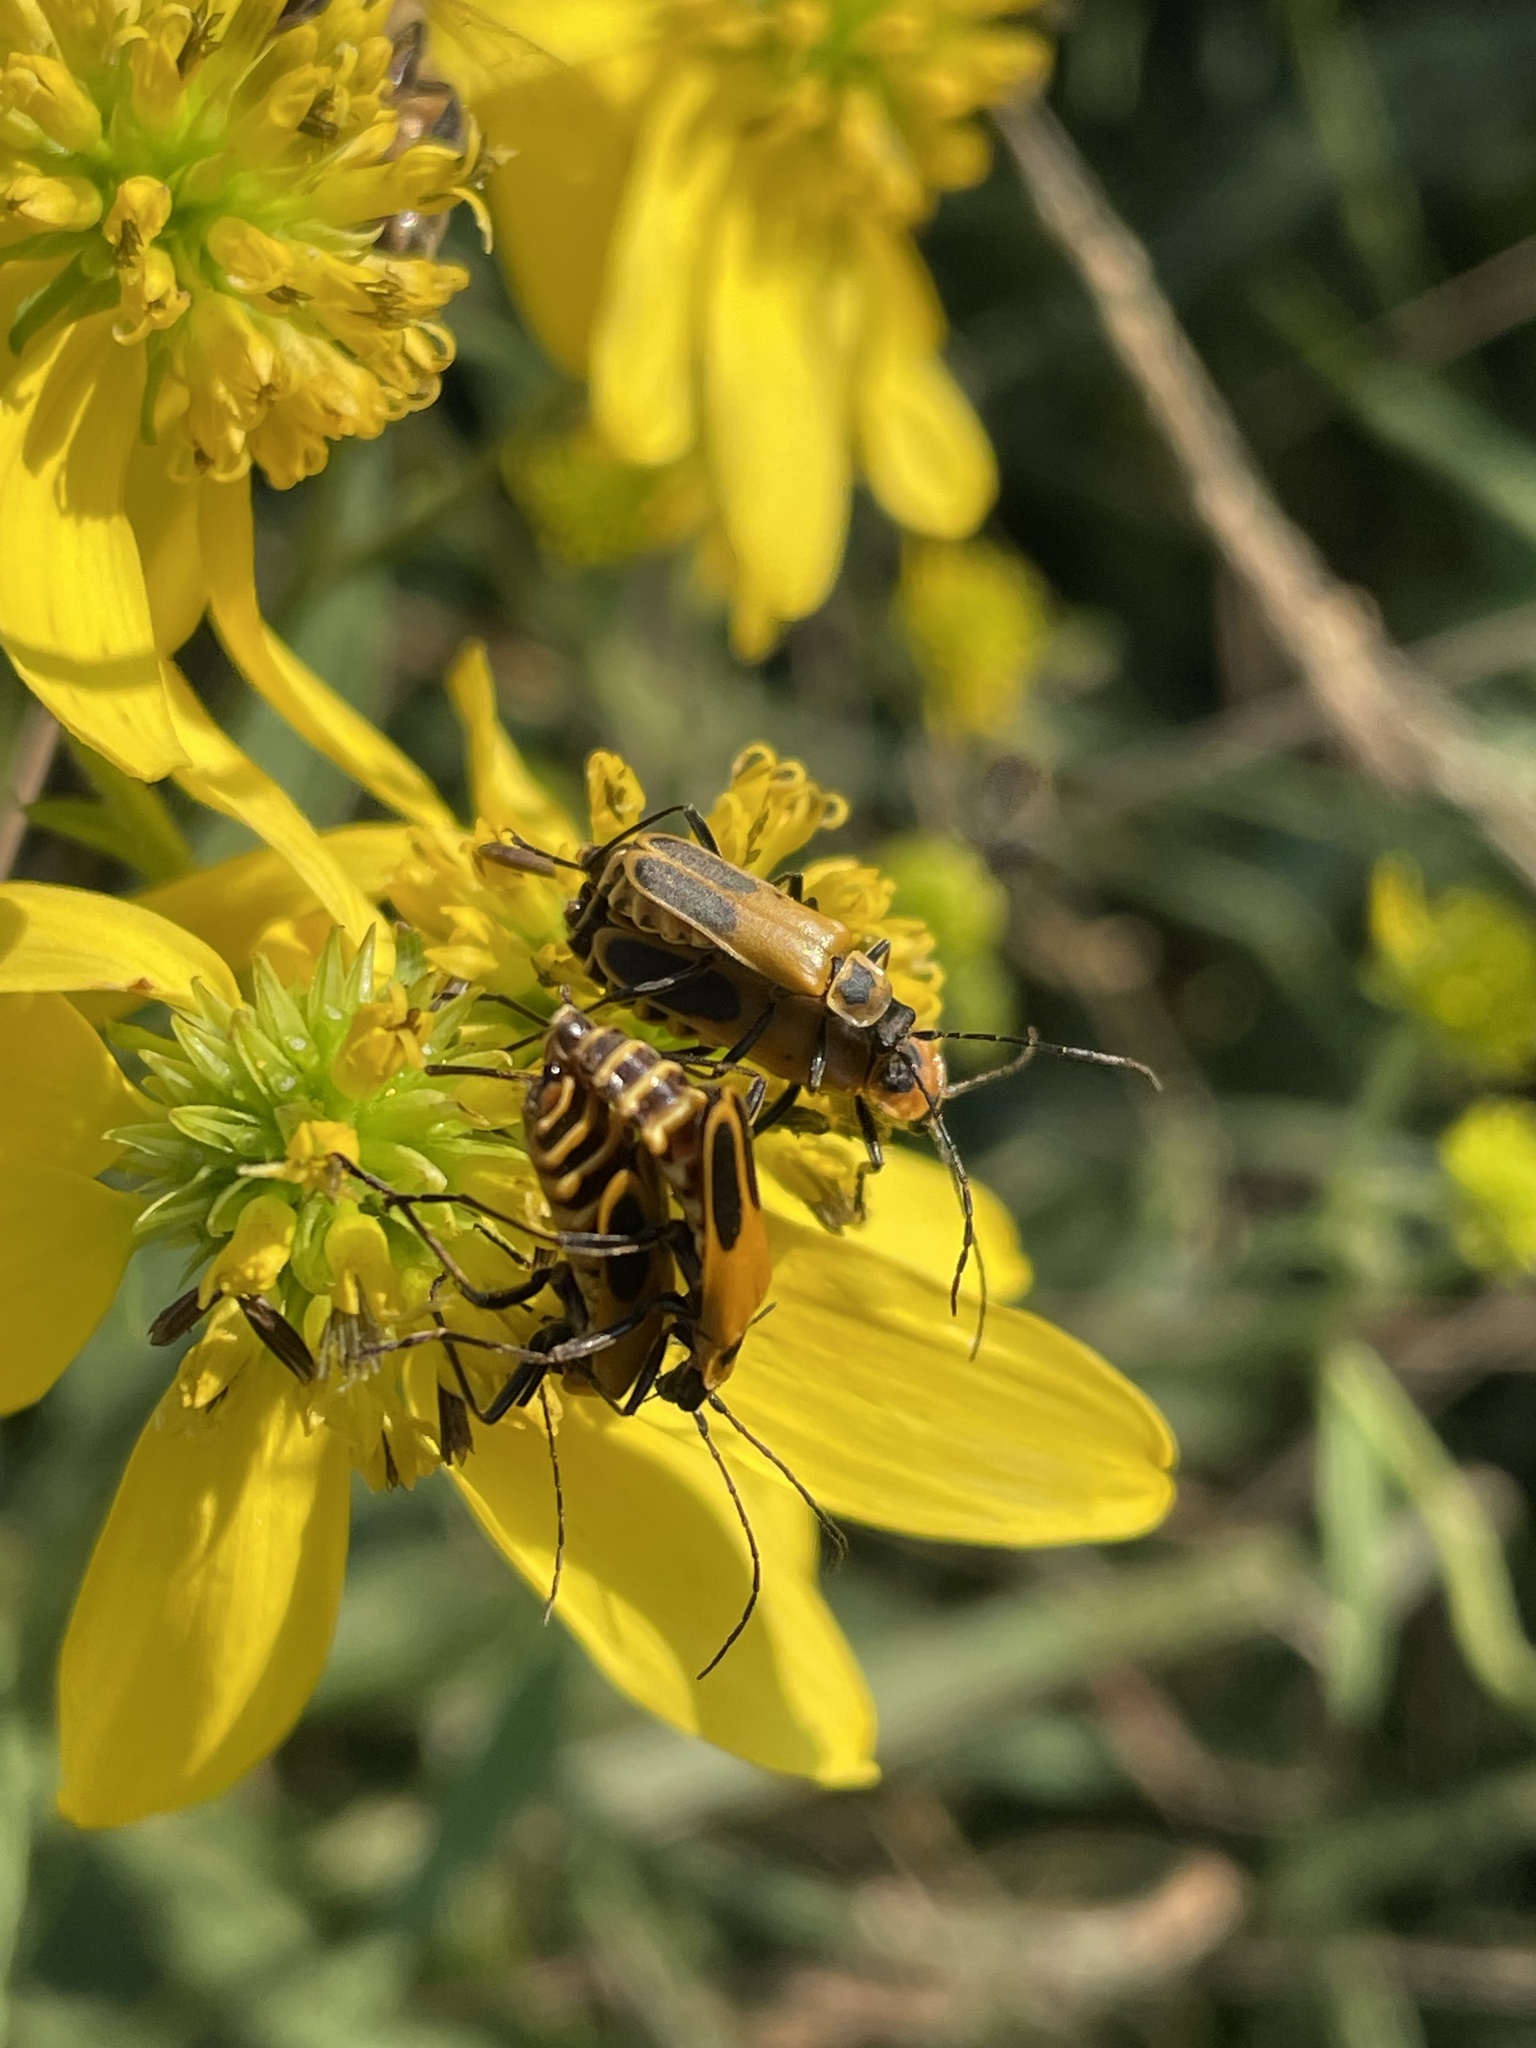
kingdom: Animalia
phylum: Arthropoda
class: Insecta
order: Coleoptera
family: Cantharidae
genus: Chauliognathus
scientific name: Chauliognathus pensylvanicus
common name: Goldenrod soldier beetle
